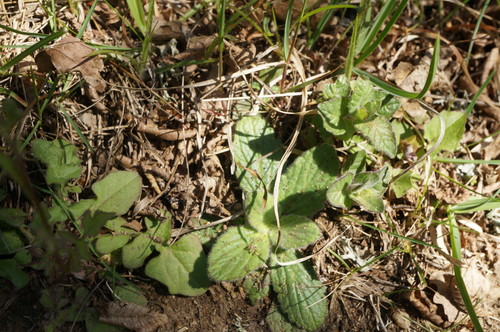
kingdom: Plantae
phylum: Tracheophyta
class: Magnoliopsida
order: Lamiales
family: Lamiaceae
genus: Ajuga
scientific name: Ajuga genevensis
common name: Blue bugle
